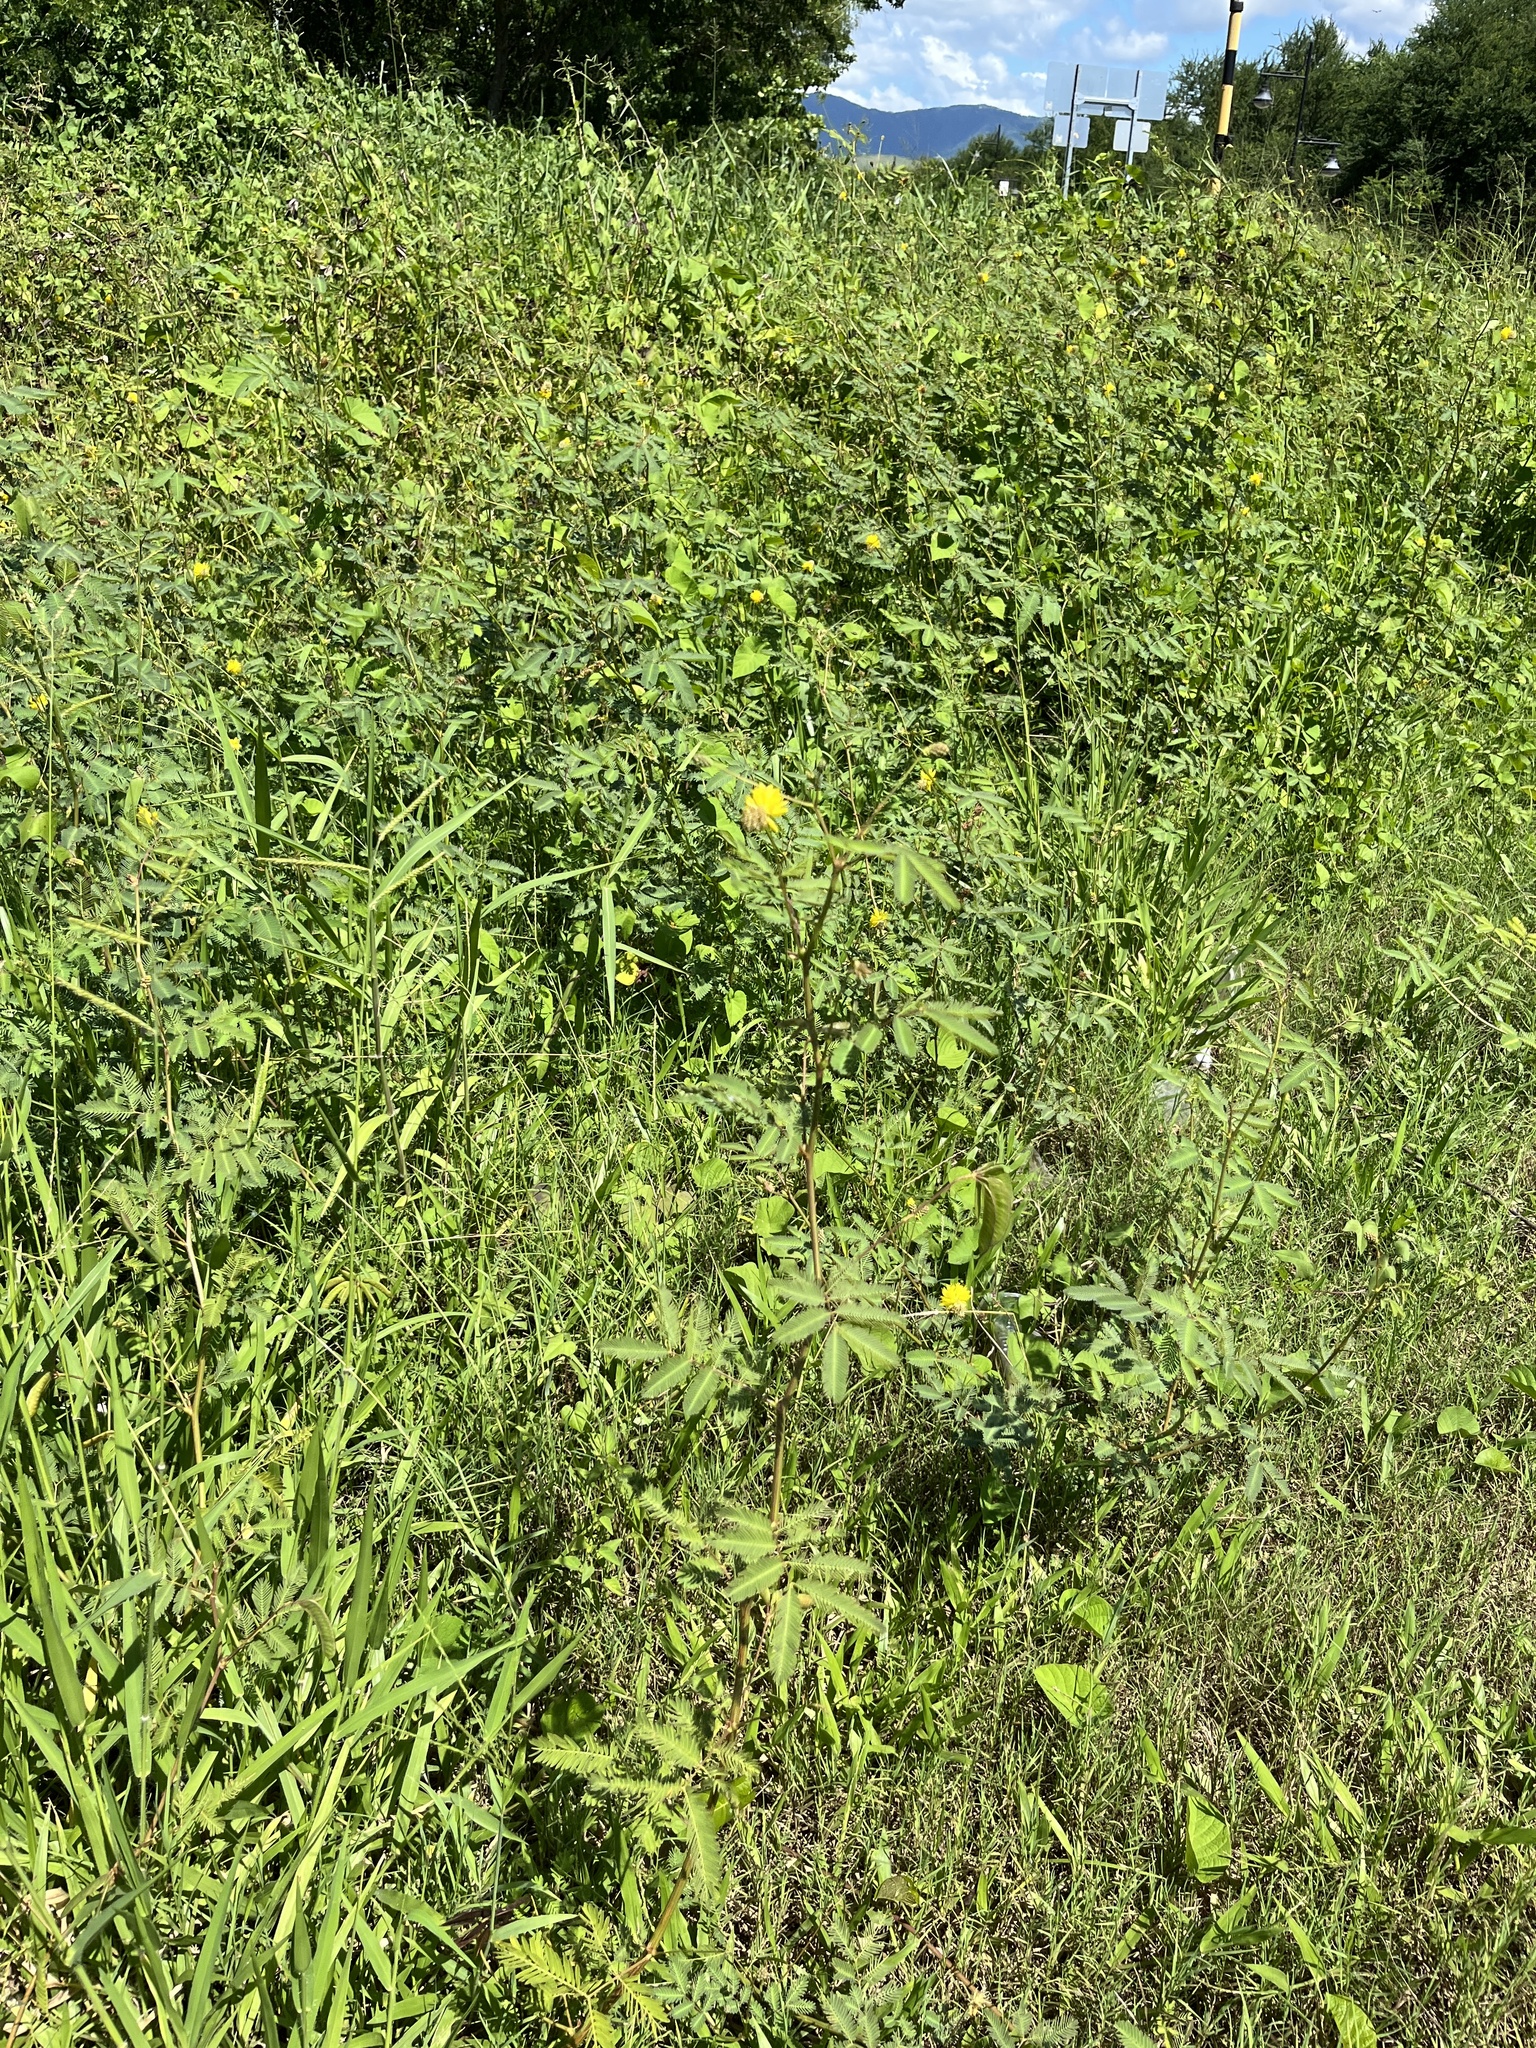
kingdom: Plantae
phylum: Tracheophyta
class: Magnoliopsida
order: Fabales
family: Fabaceae
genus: Neptunia
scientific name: Neptunia plena
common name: Dead and awake
